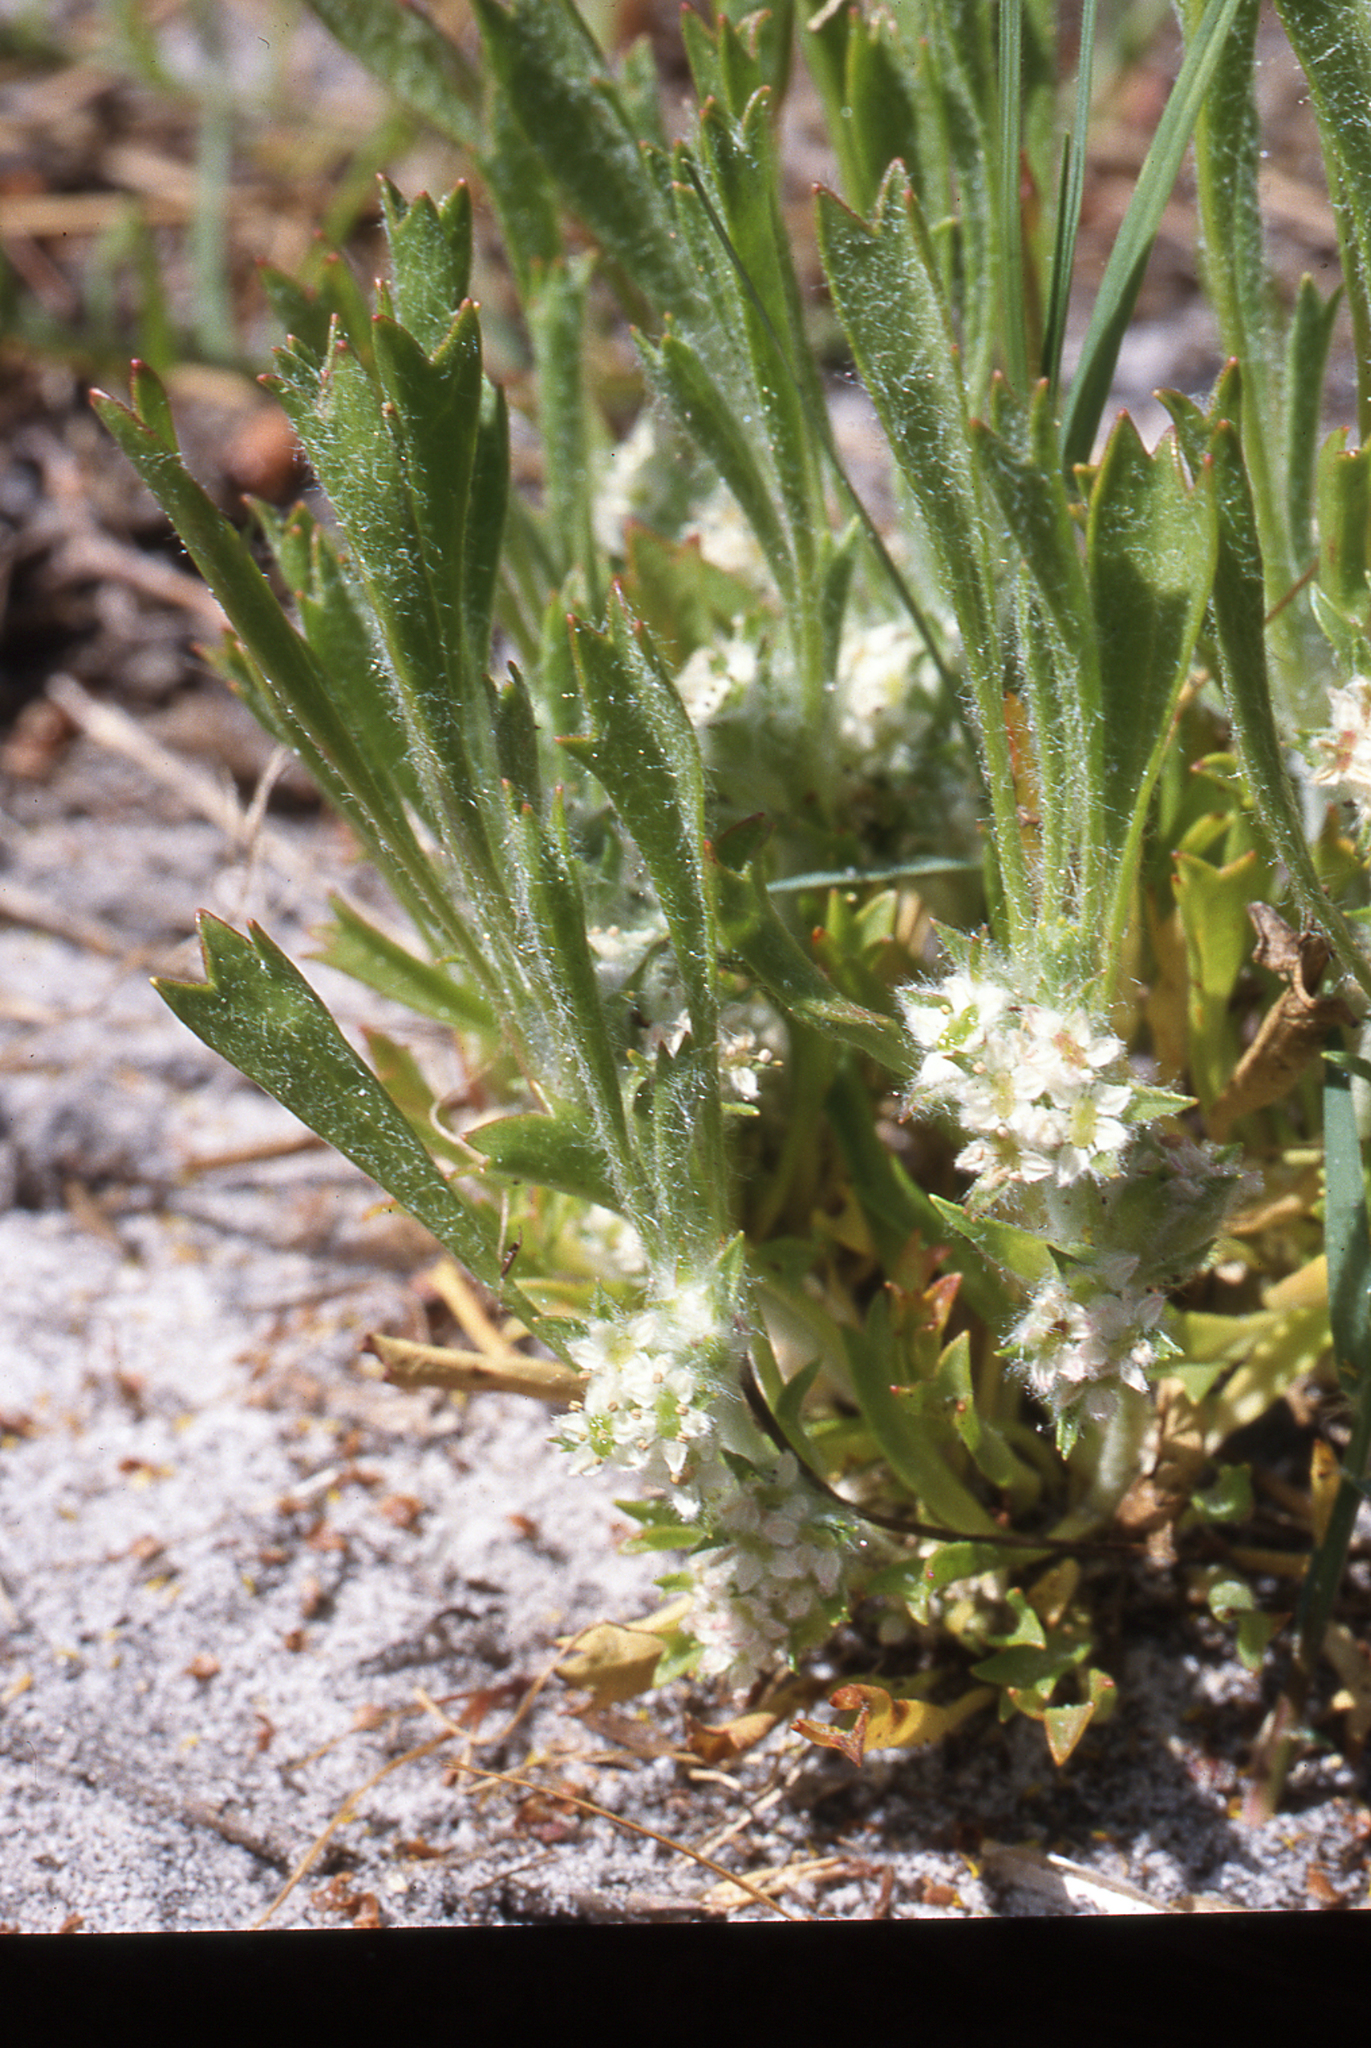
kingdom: Plantae
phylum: Tracheophyta
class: Magnoliopsida
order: Apiales
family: Apiaceae
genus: Centella
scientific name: Centella tridentata
